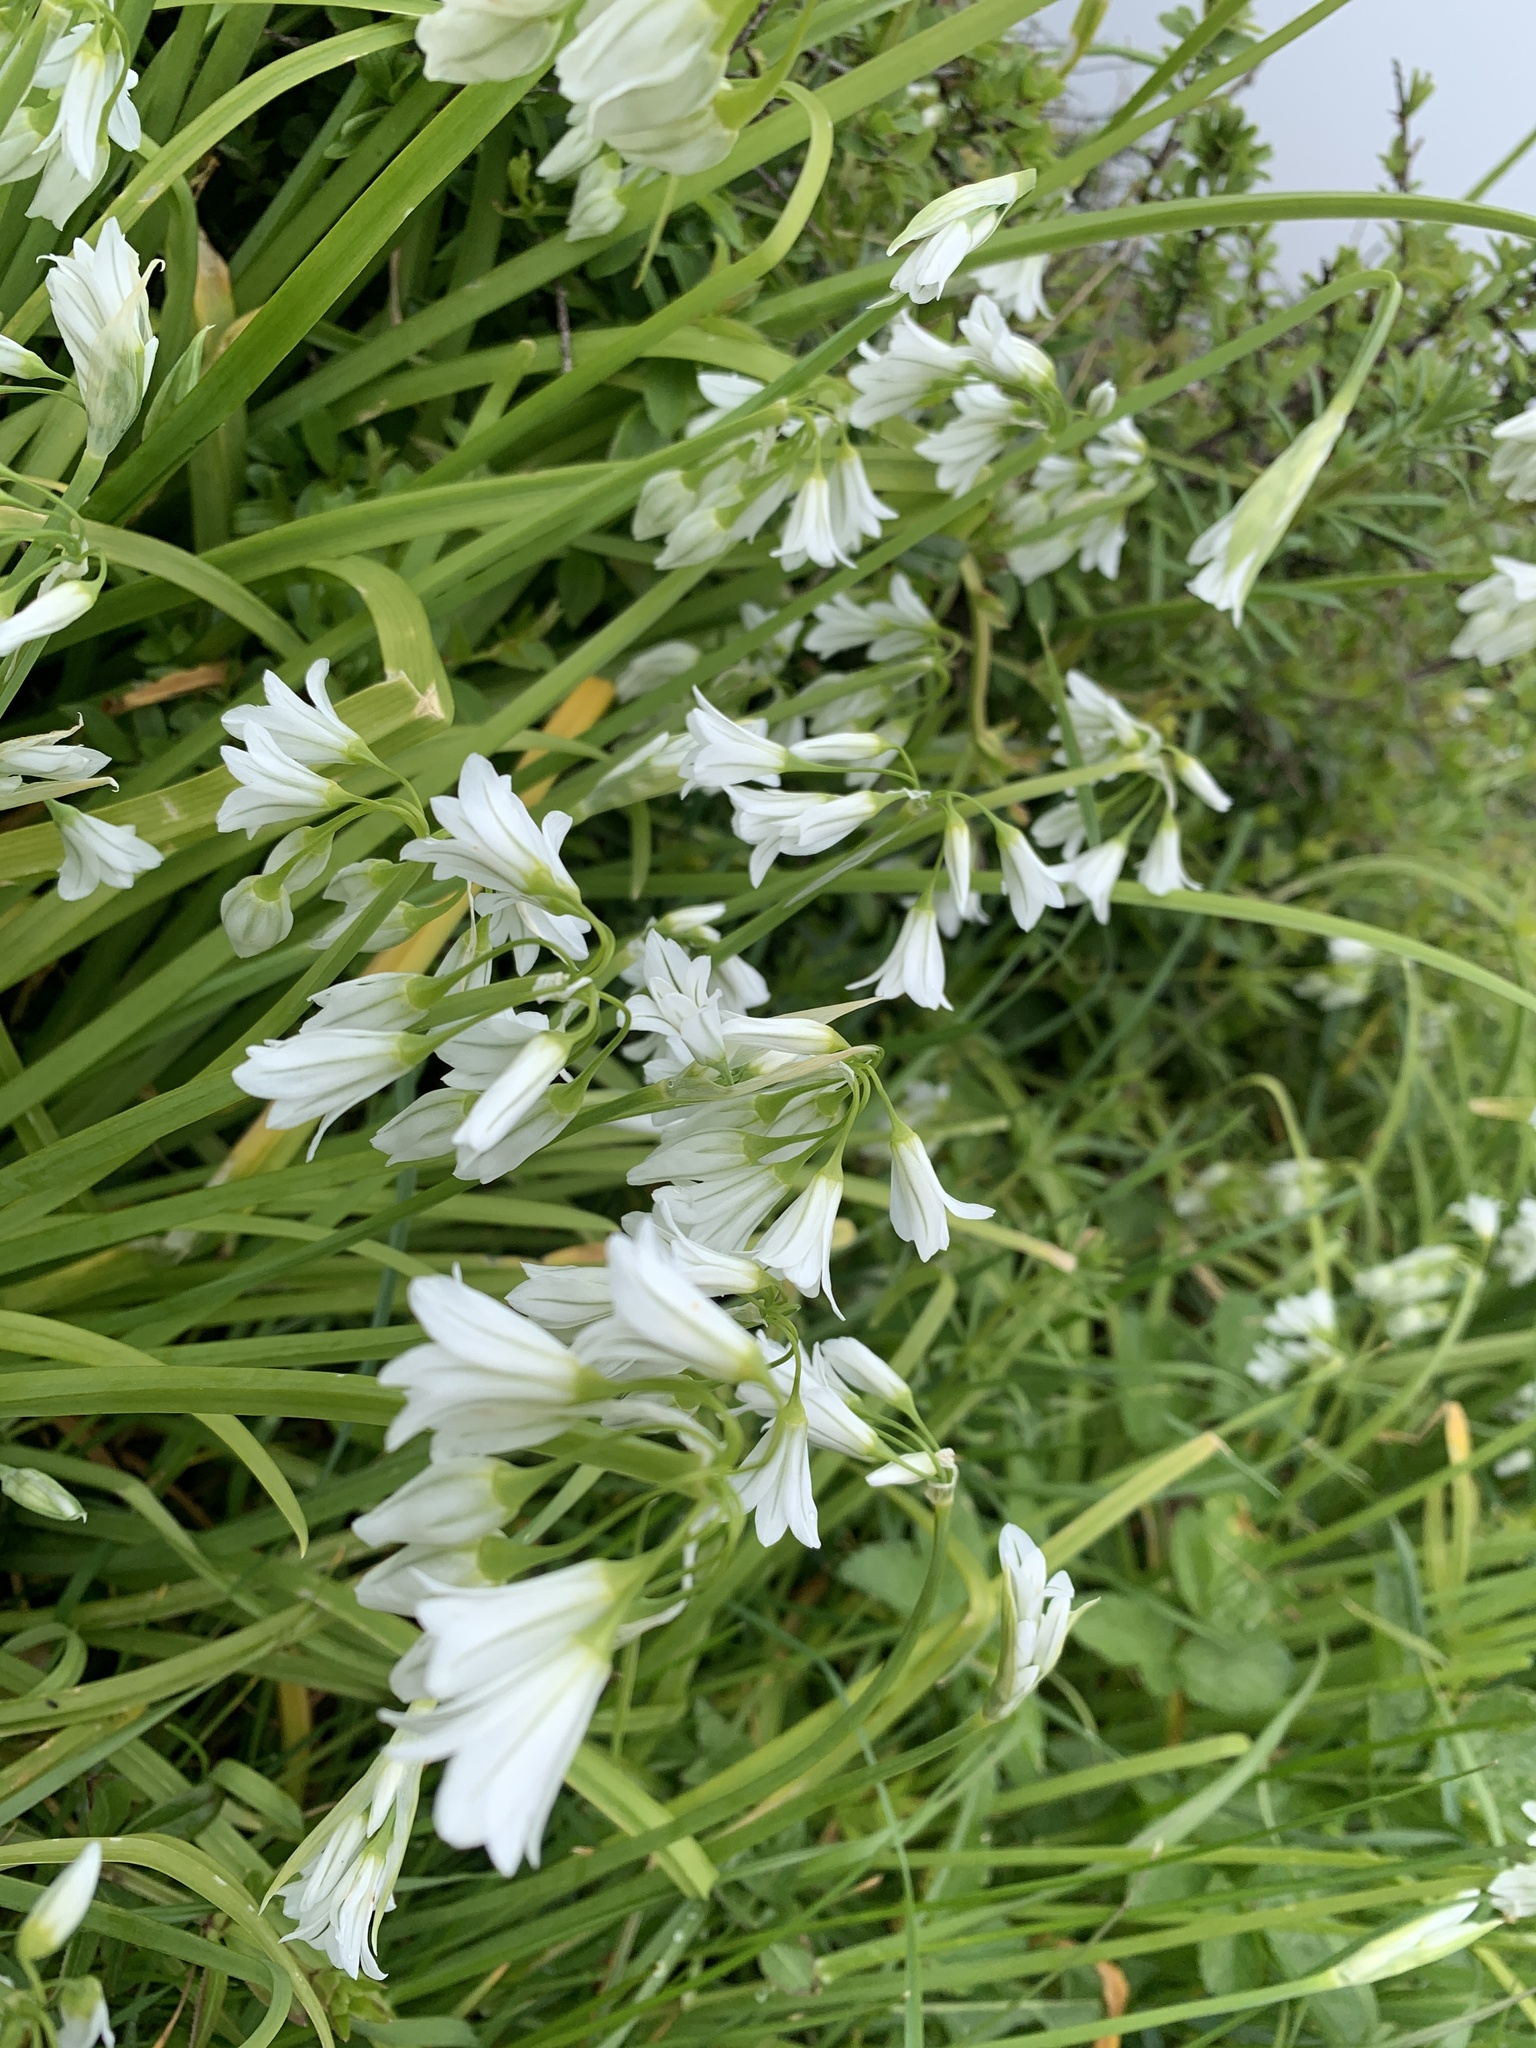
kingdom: Plantae
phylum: Tracheophyta
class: Liliopsida
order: Asparagales
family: Amaryllidaceae
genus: Allium
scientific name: Allium triquetrum
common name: Three-cornered garlic
